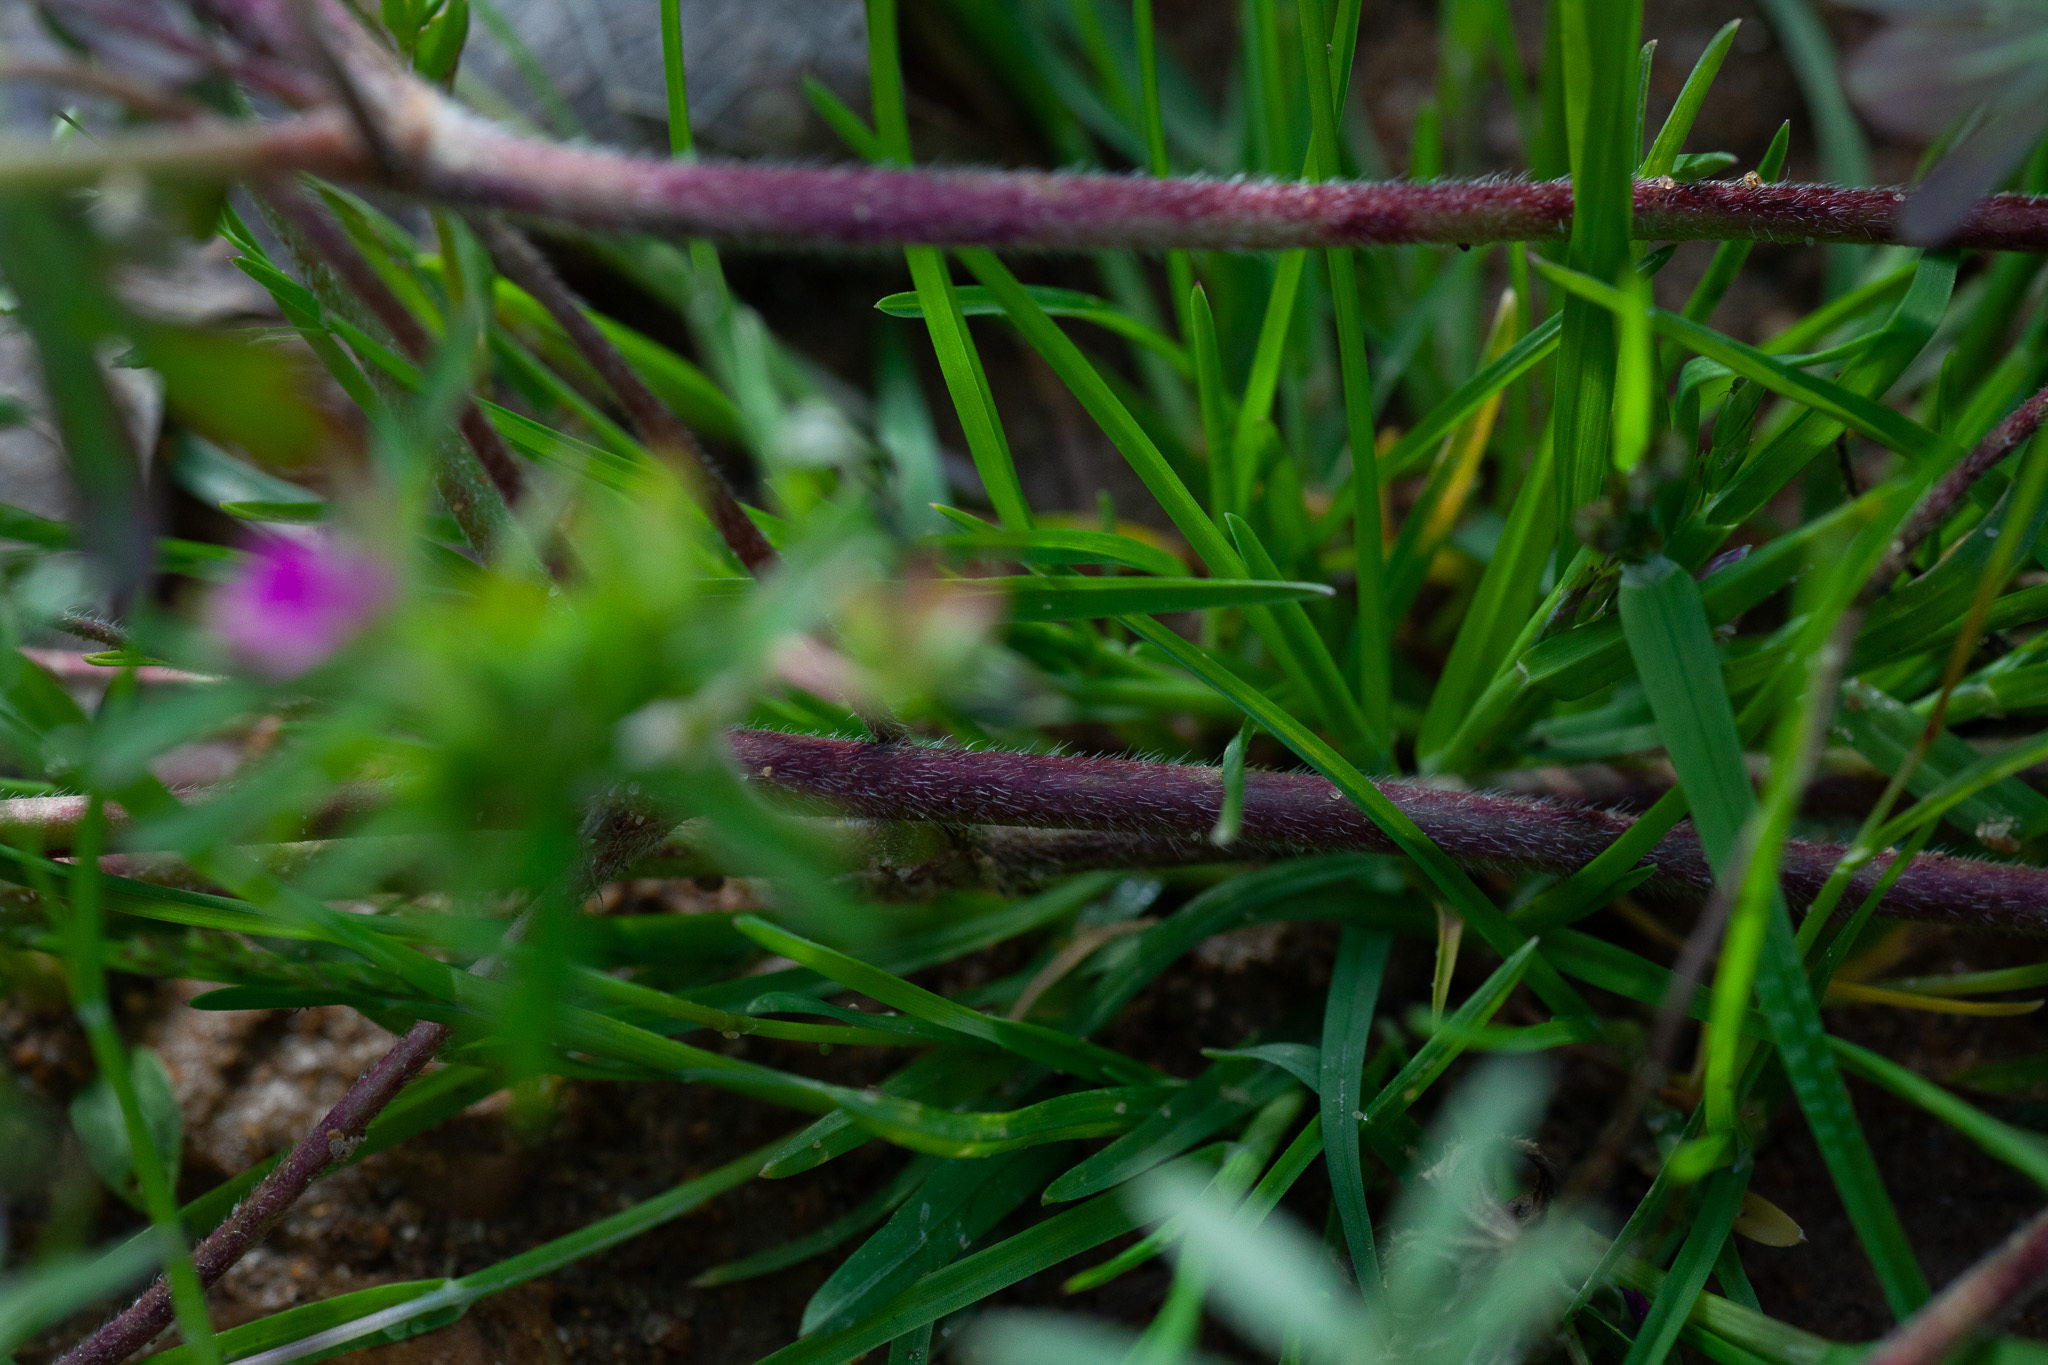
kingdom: Plantae
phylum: Tracheophyta
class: Magnoliopsida
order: Geraniales
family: Geraniaceae
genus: Geranium
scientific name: Geranium dissectum
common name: Cut-leaved crane's-bill
